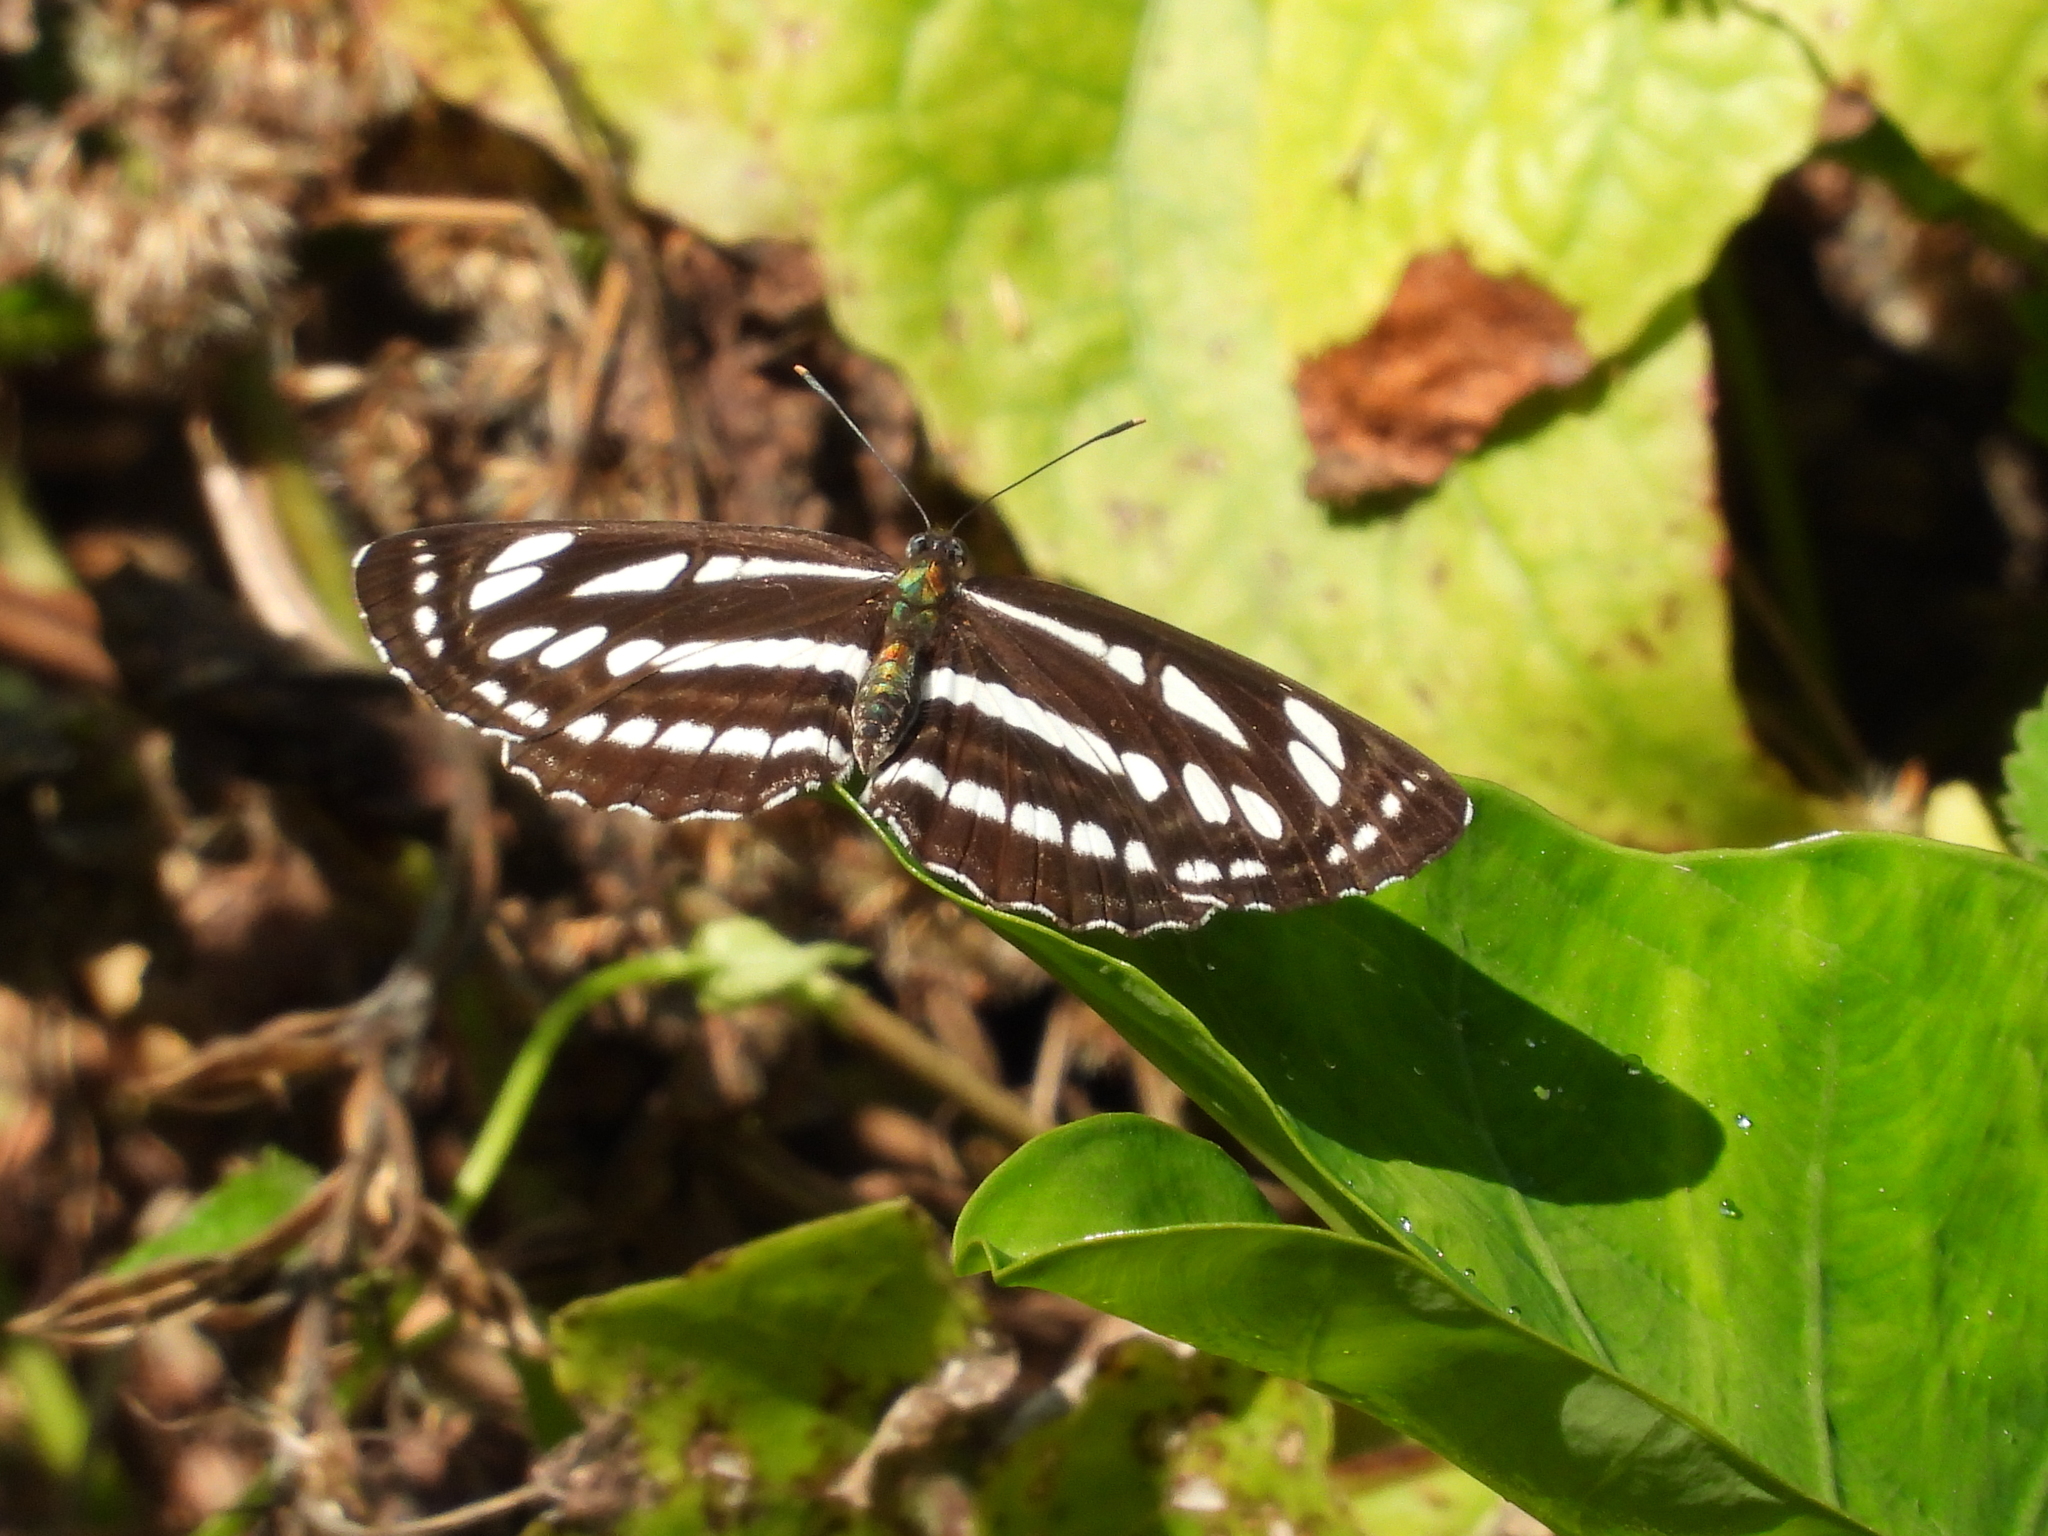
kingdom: Animalia
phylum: Arthropoda
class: Insecta
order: Lepidoptera
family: Nymphalidae
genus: Neptis
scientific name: Neptis hylas
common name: Common sailer
